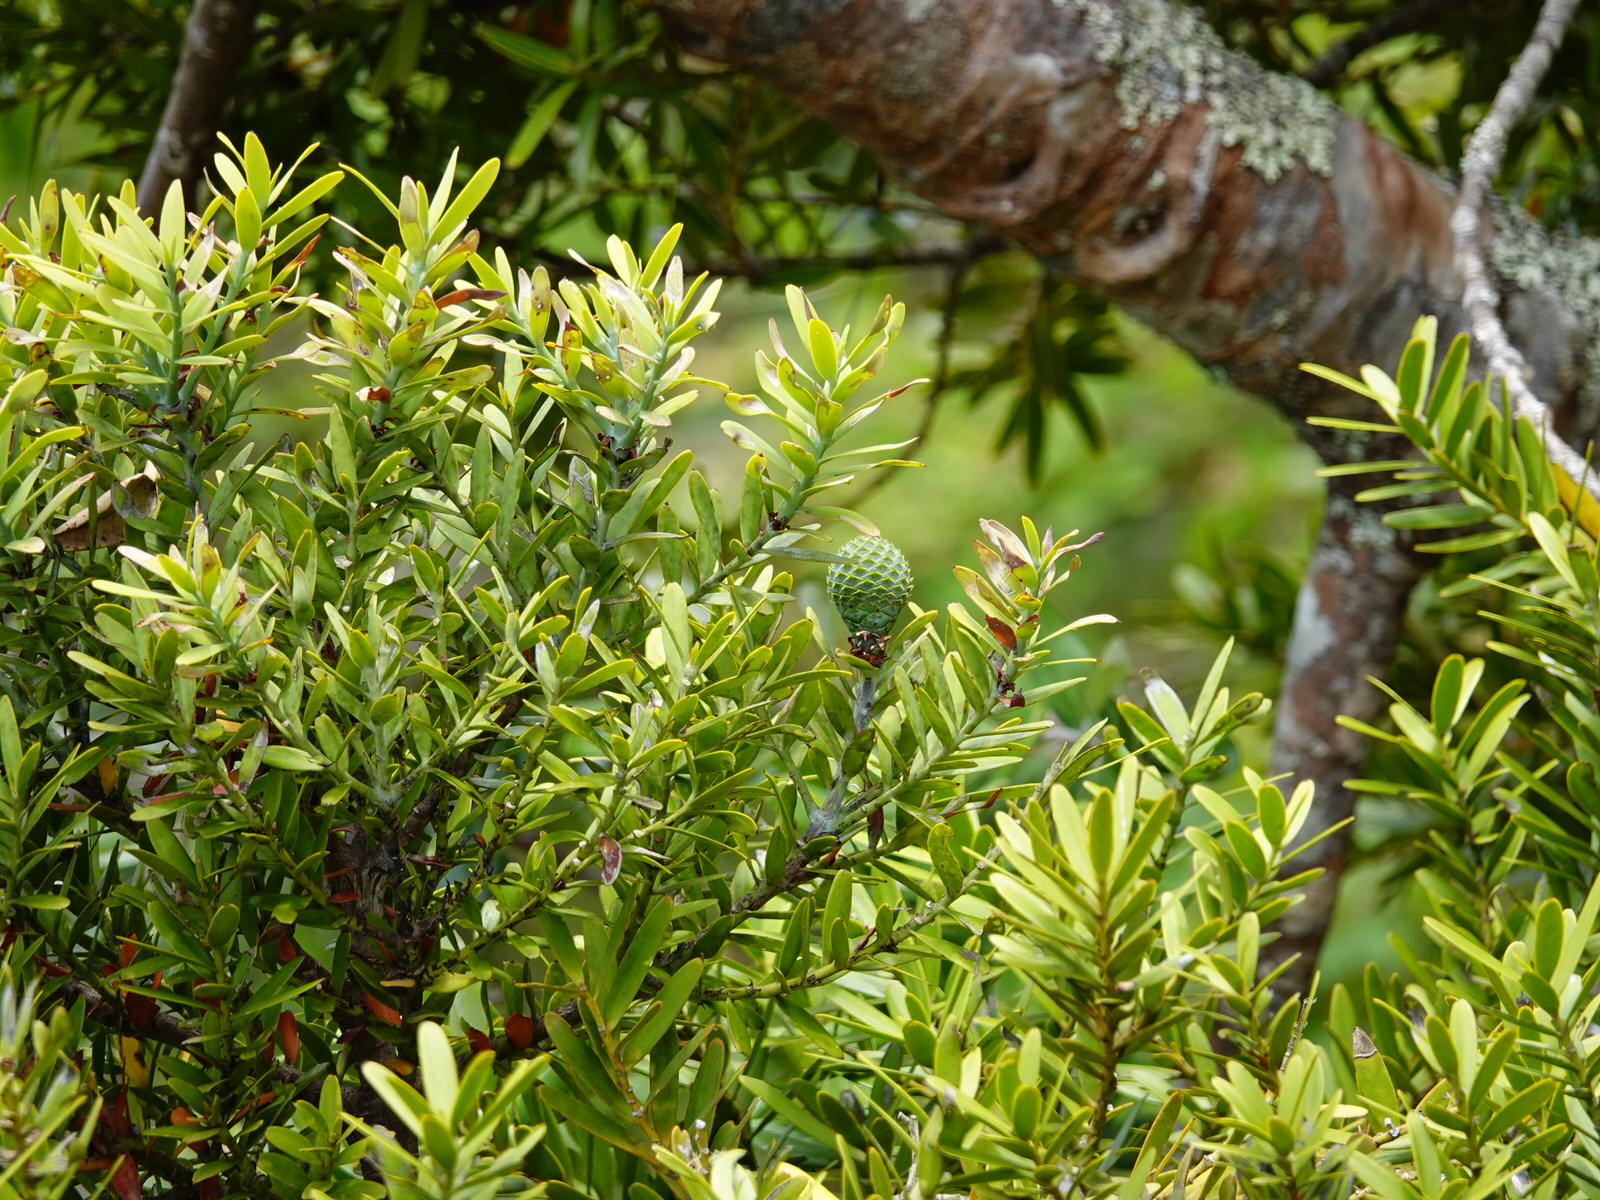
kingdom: Plantae
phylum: Tracheophyta
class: Pinopsida
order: Pinales
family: Araucariaceae
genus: Agathis
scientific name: Agathis australis
